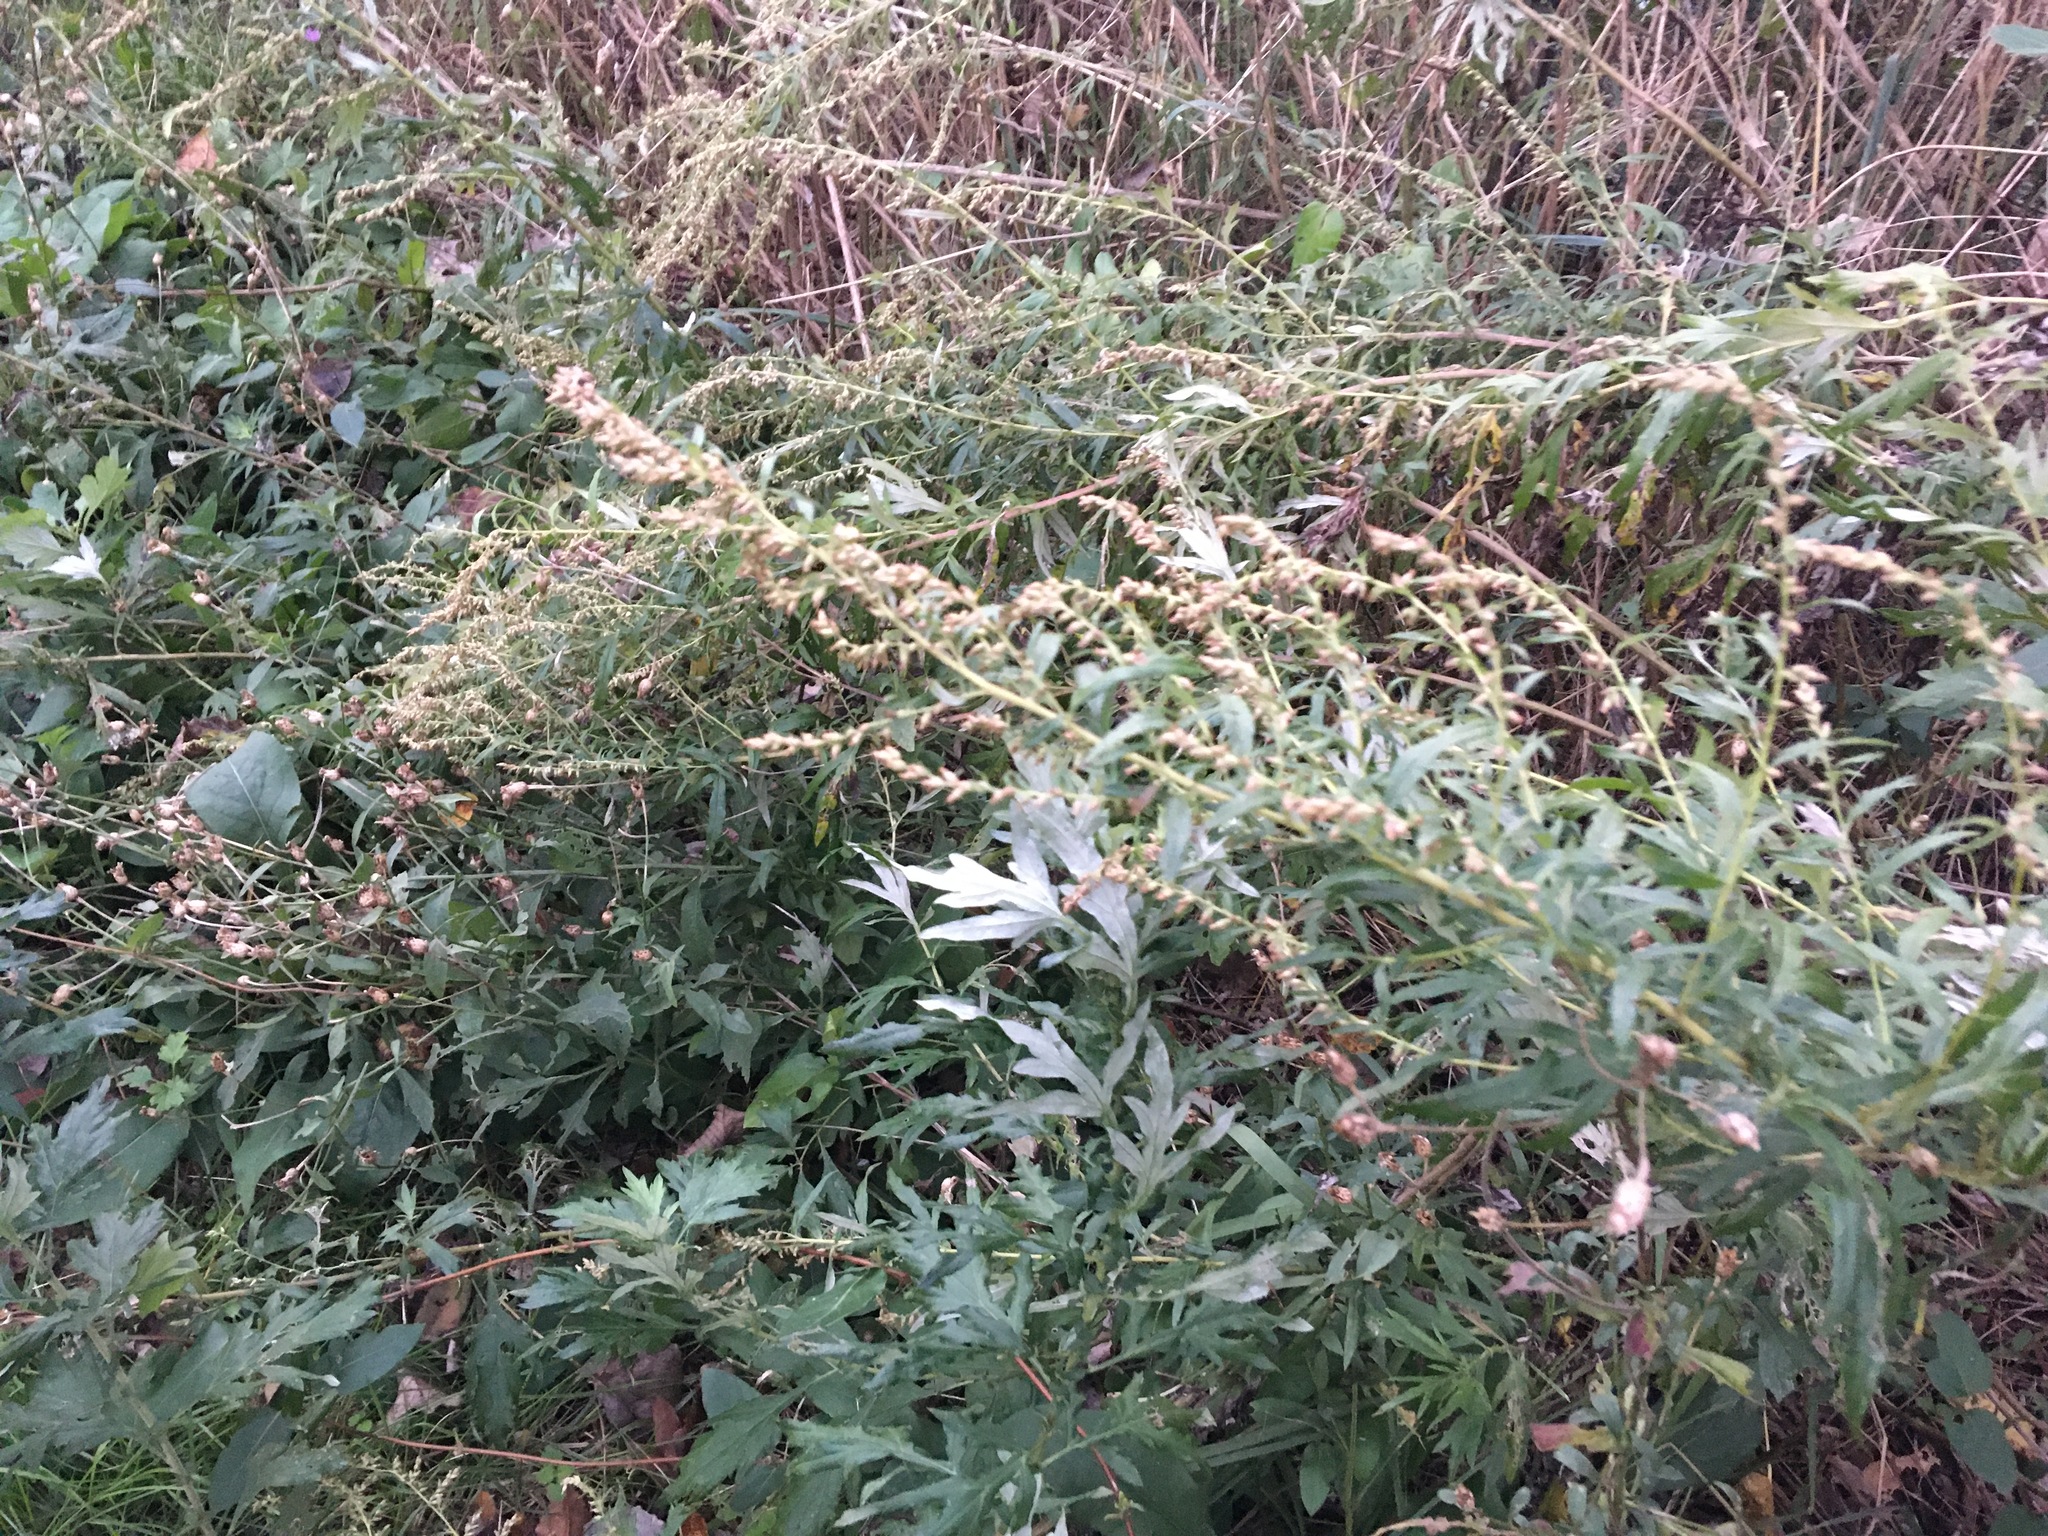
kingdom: Plantae
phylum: Tracheophyta
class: Magnoliopsida
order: Asterales
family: Asteraceae
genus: Artemisia
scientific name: Artemisia vulgaris
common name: Mugwort
